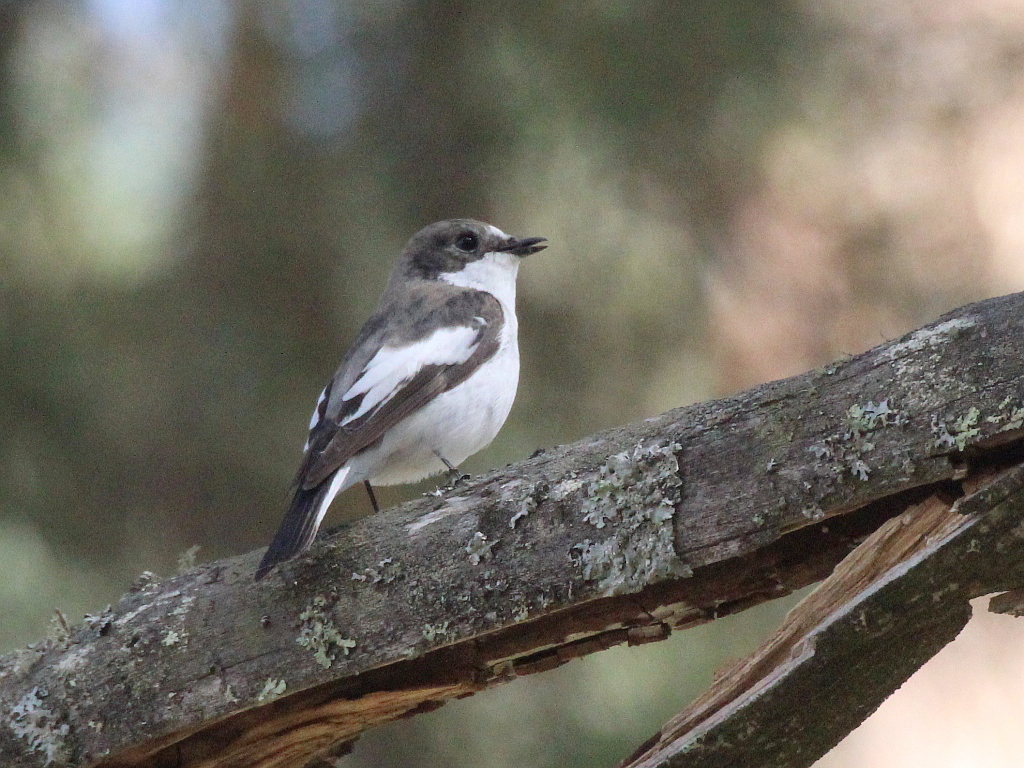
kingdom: Animalia
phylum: Chordata
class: Aves
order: Passeriformes
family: Muscicapidae
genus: Ficedula
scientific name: Ficedula hypoleuca
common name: European pied flycatcher
